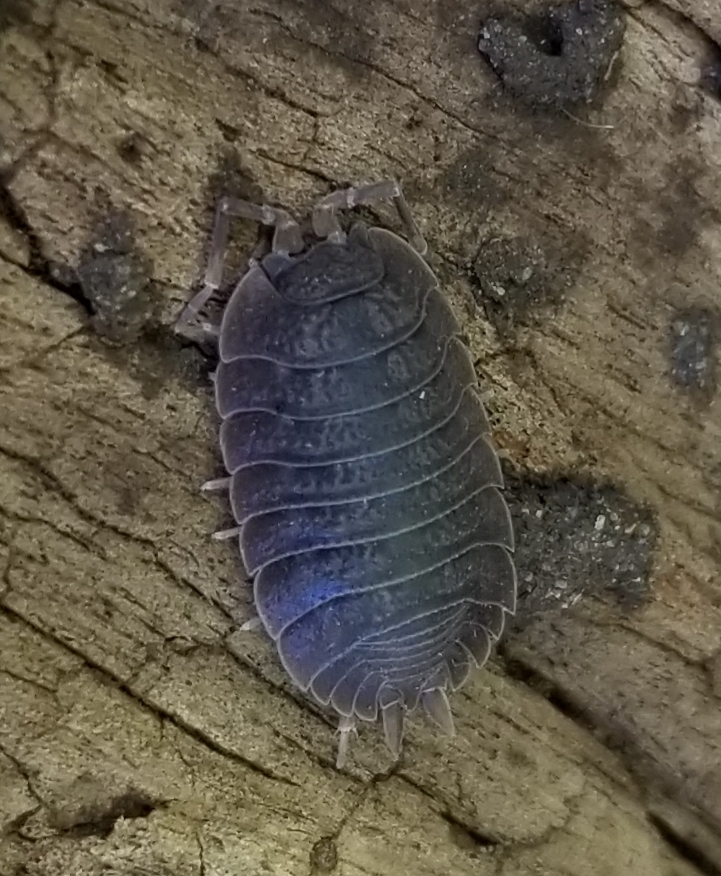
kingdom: Animalia
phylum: Arthropoda
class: Malacostraca
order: Isopoda
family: Porcellionidae
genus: Porcellio
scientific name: Porcellio dilatatus
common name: Isopod
